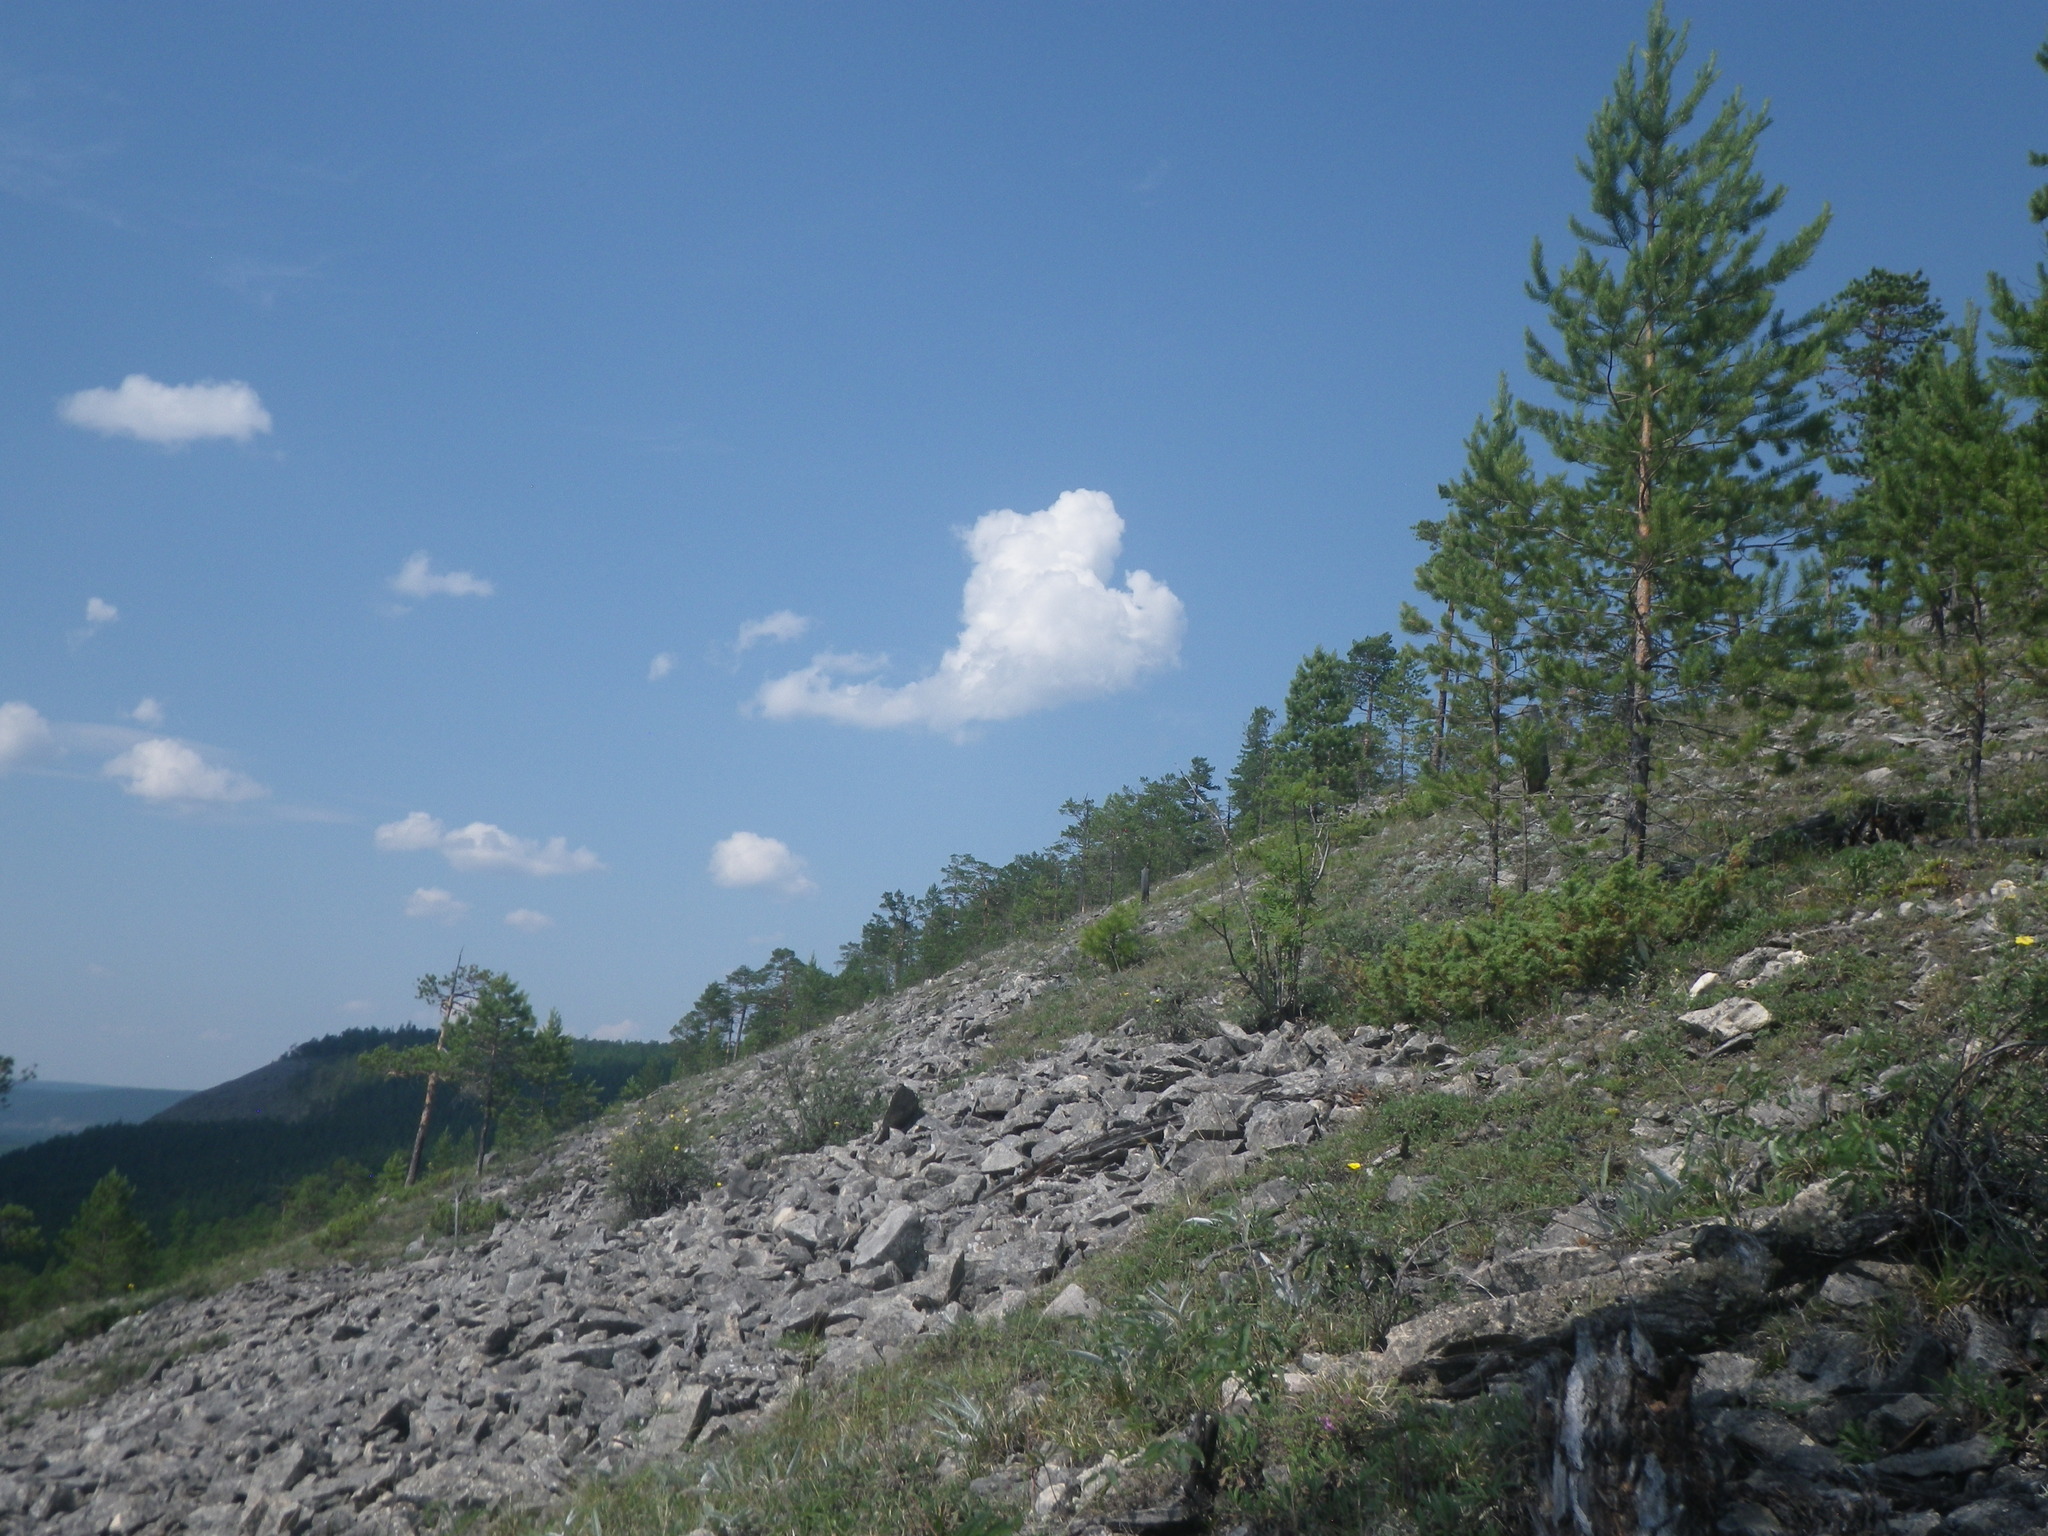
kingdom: Plantae
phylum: Tracheophyta
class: Pinopsida
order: Pinales
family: Pinaceae
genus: Pinus
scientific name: Pinus sylvestris
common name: Scots pine
